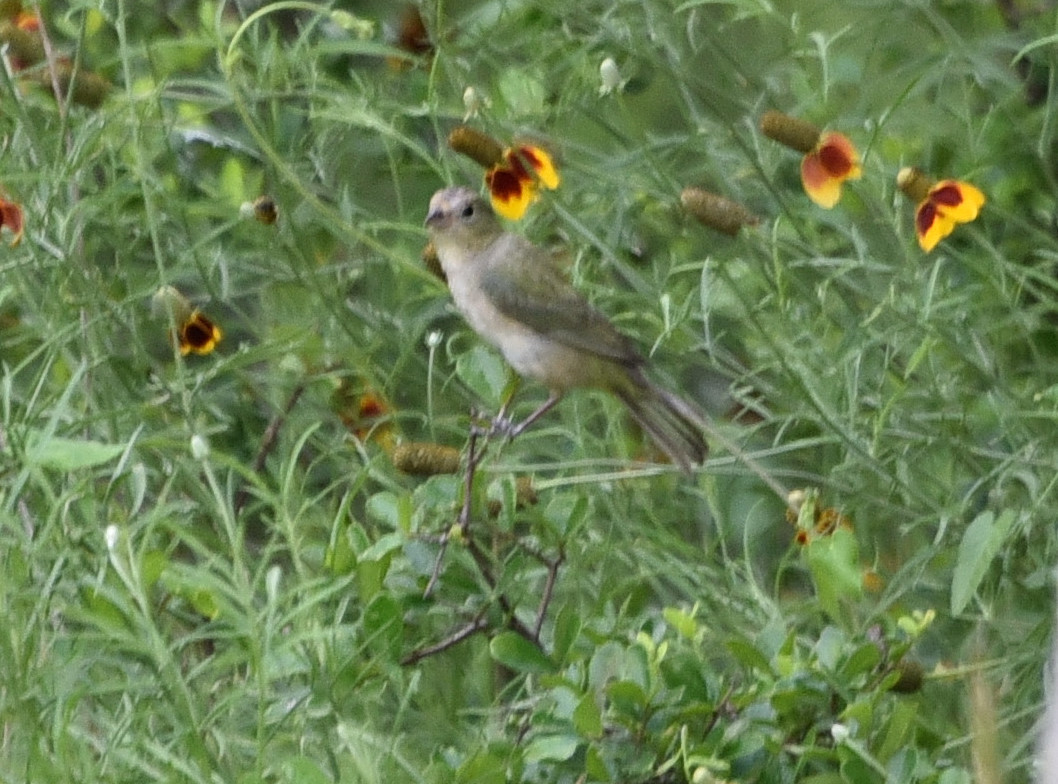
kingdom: Animalia
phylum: Chordata
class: Aves
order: Passeriformes
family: Cardinalidae
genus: Passerina
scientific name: Passerina ciris
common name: Painted bunting
